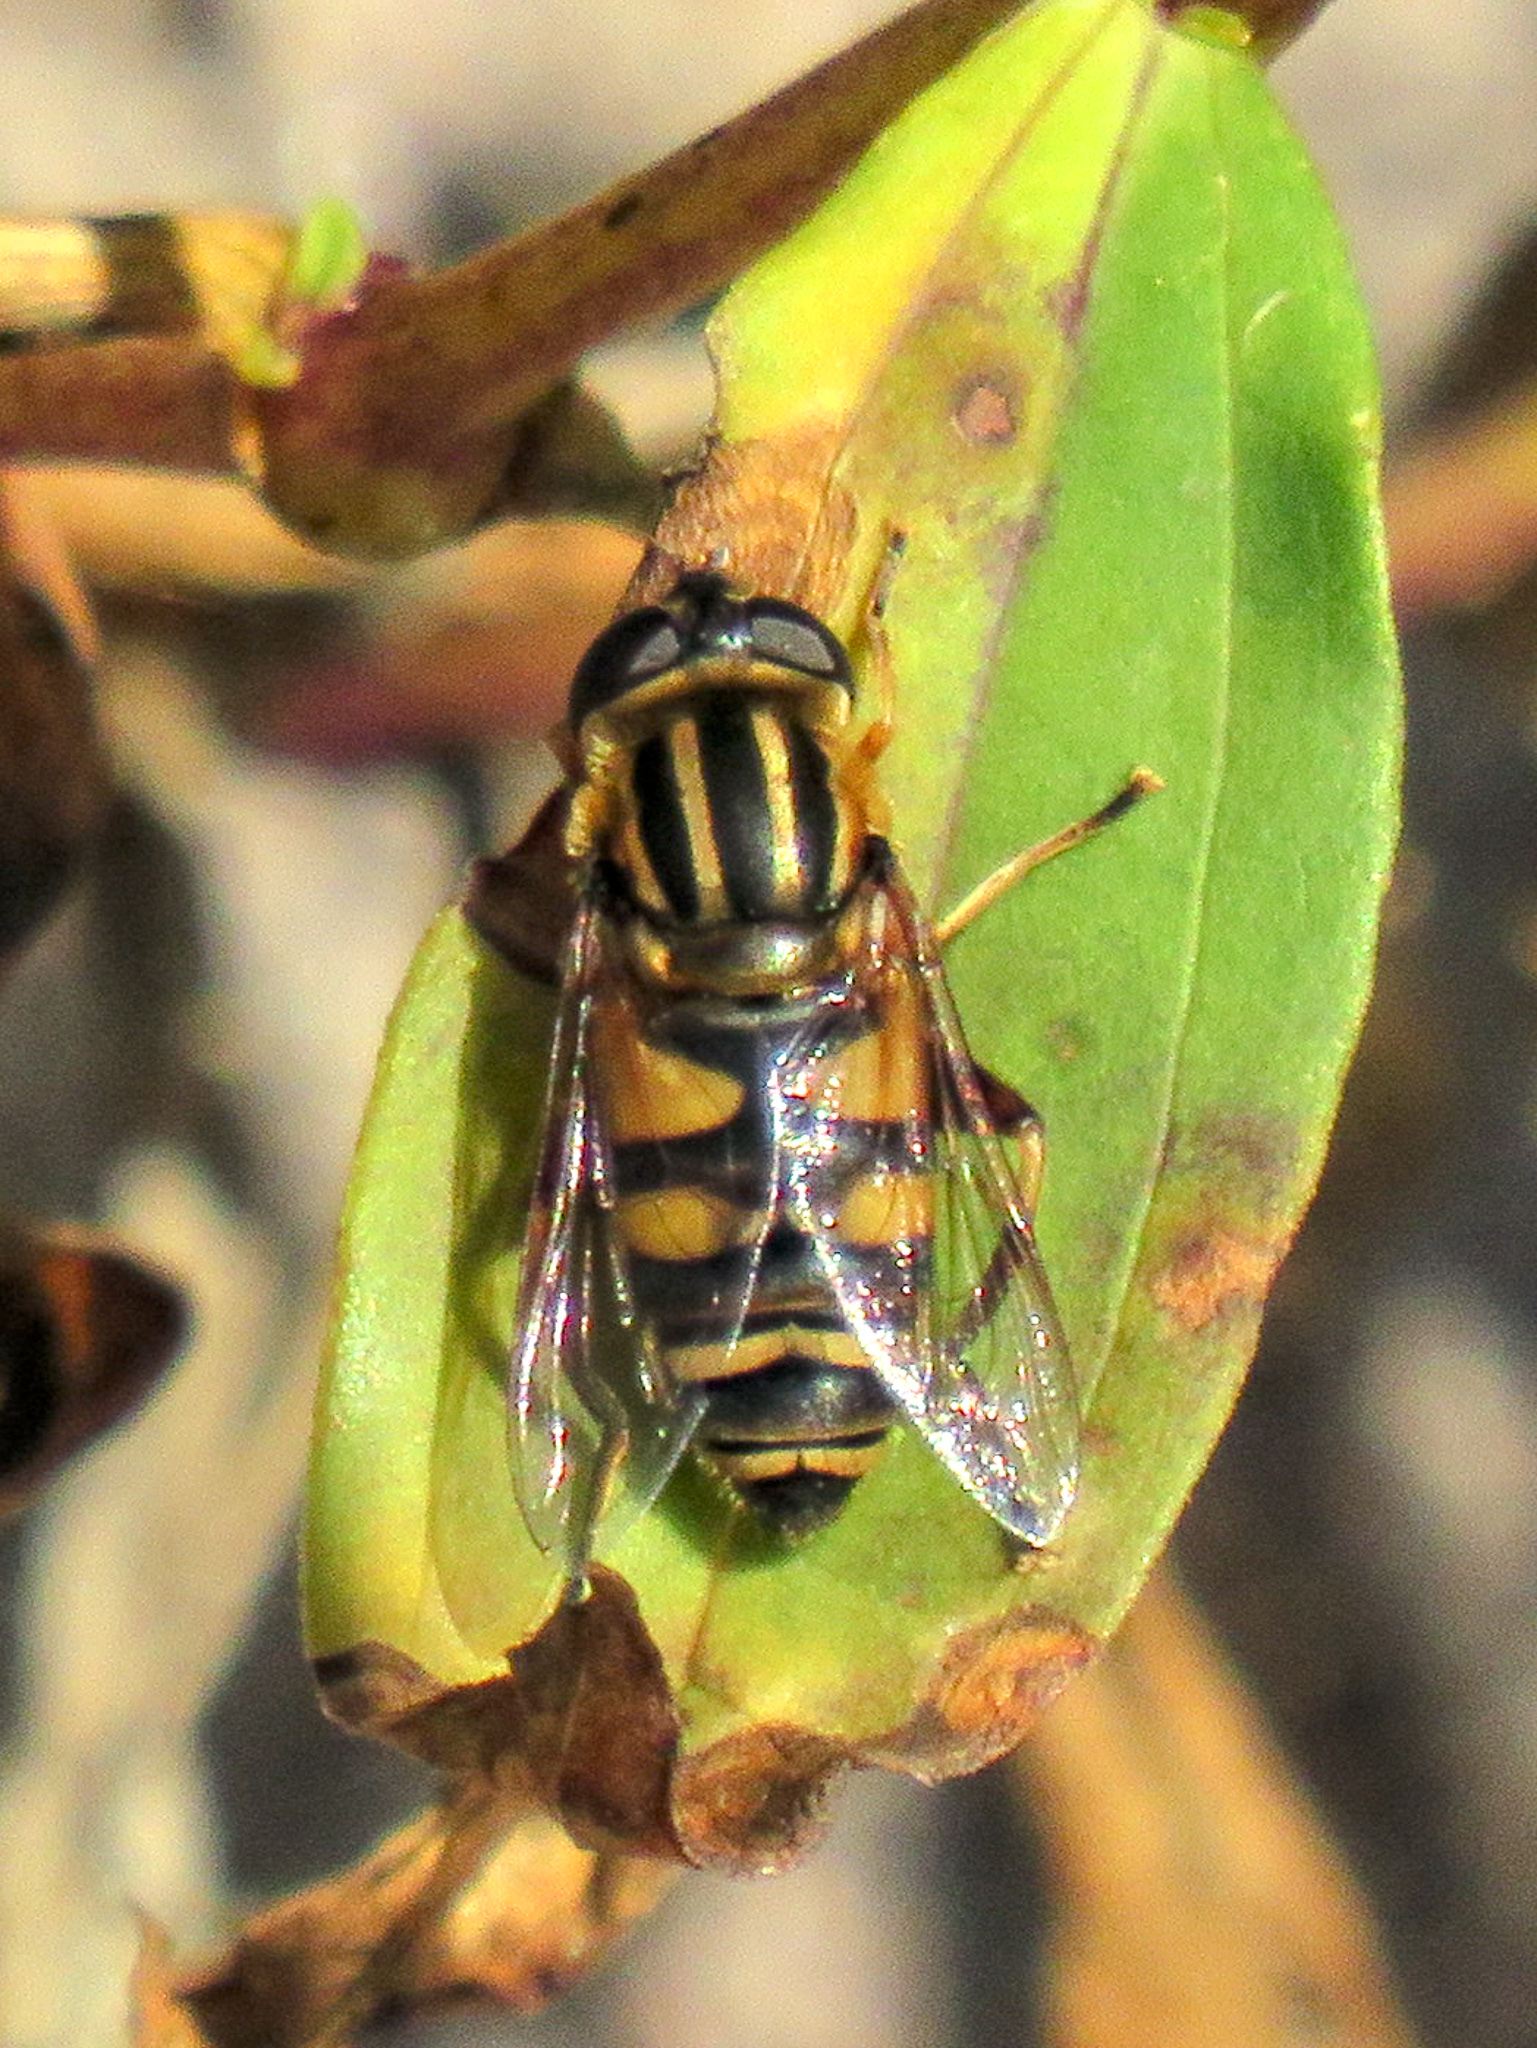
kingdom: Animalia
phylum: Arthropoda
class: Insecta
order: Diptera
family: Syrphidae
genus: Helophilus
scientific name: Helophilus fasciatus
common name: Narrow-headed marsh fly
